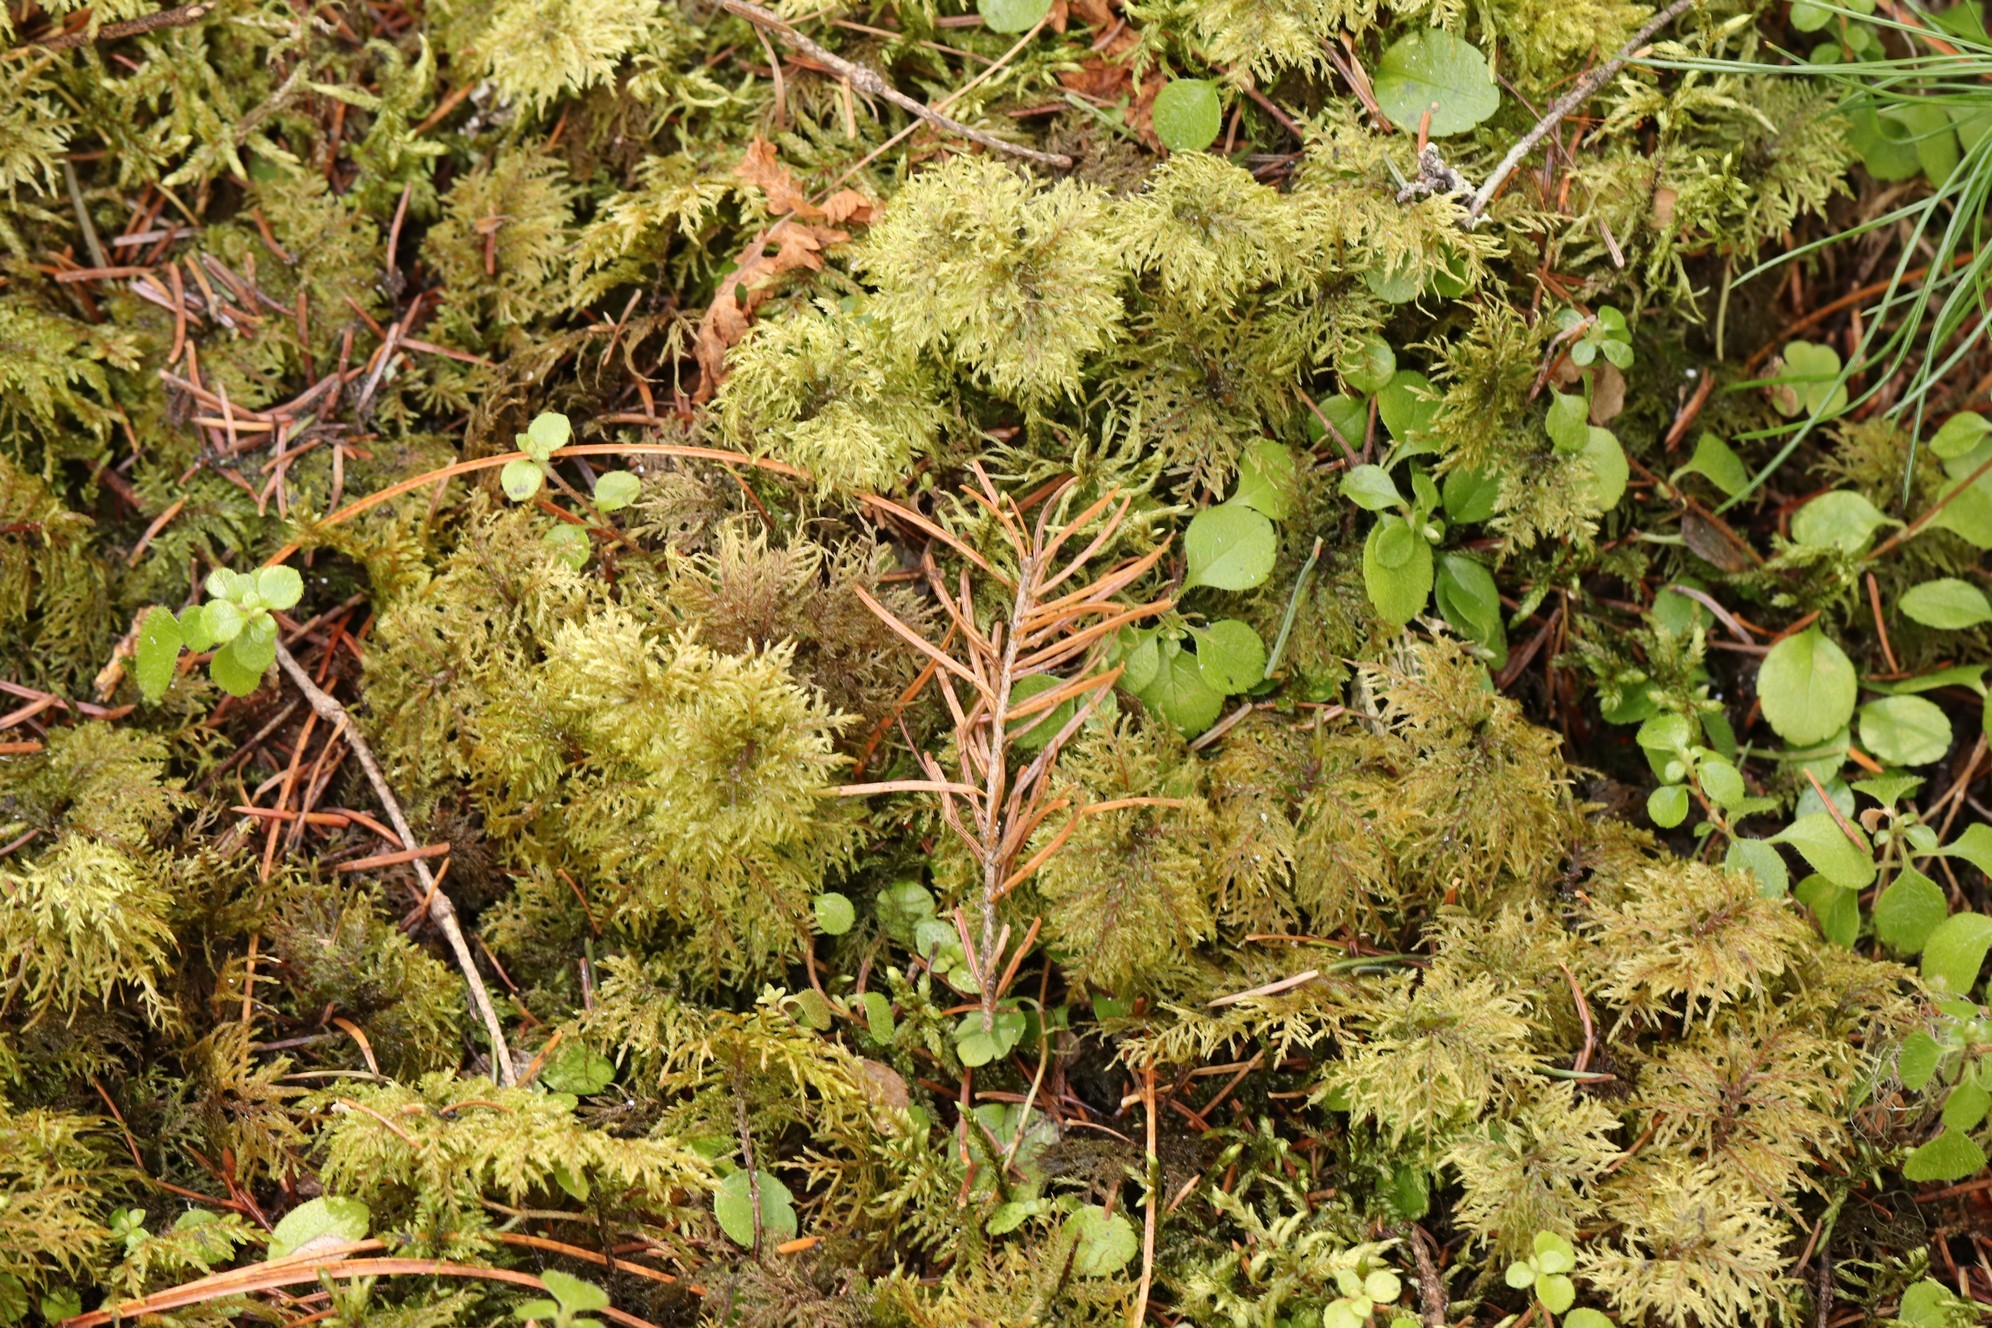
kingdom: Plantae
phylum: Bryophyta
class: Bryopsida
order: Hypnales
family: Hylocomiaceae
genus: Hylocomium
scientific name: Hylocomium splendens
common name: Stairstep moss
